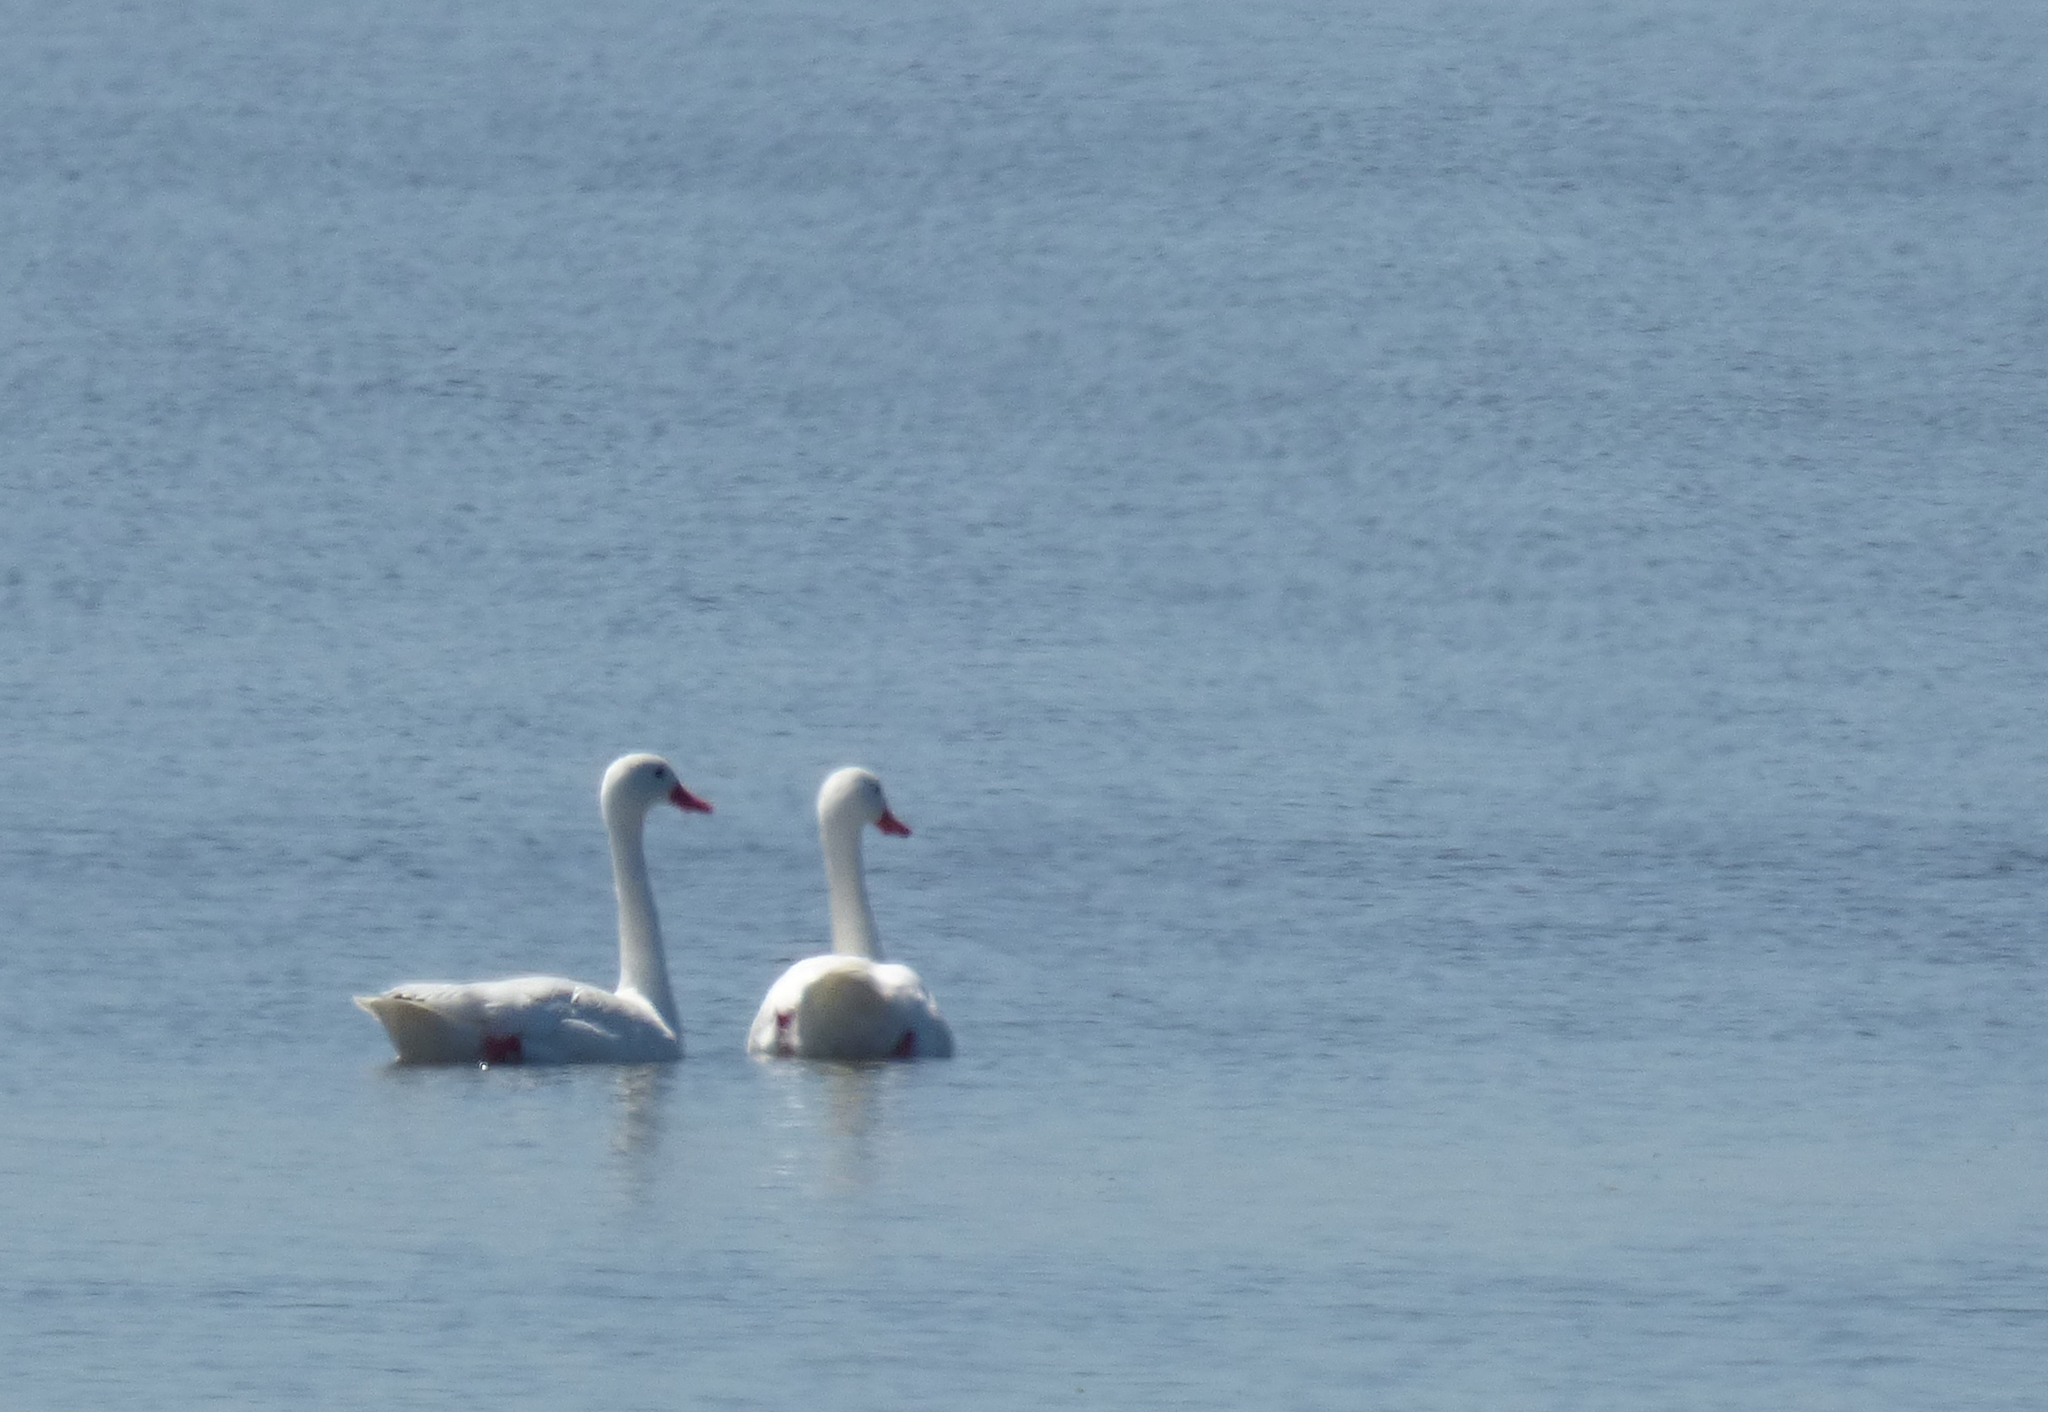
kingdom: Animalia
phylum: Chordata
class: Aves
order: Anseriformes
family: Anatidae
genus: Coscoroba
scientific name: Coscoroba coscoroba
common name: Coscoroba swan
